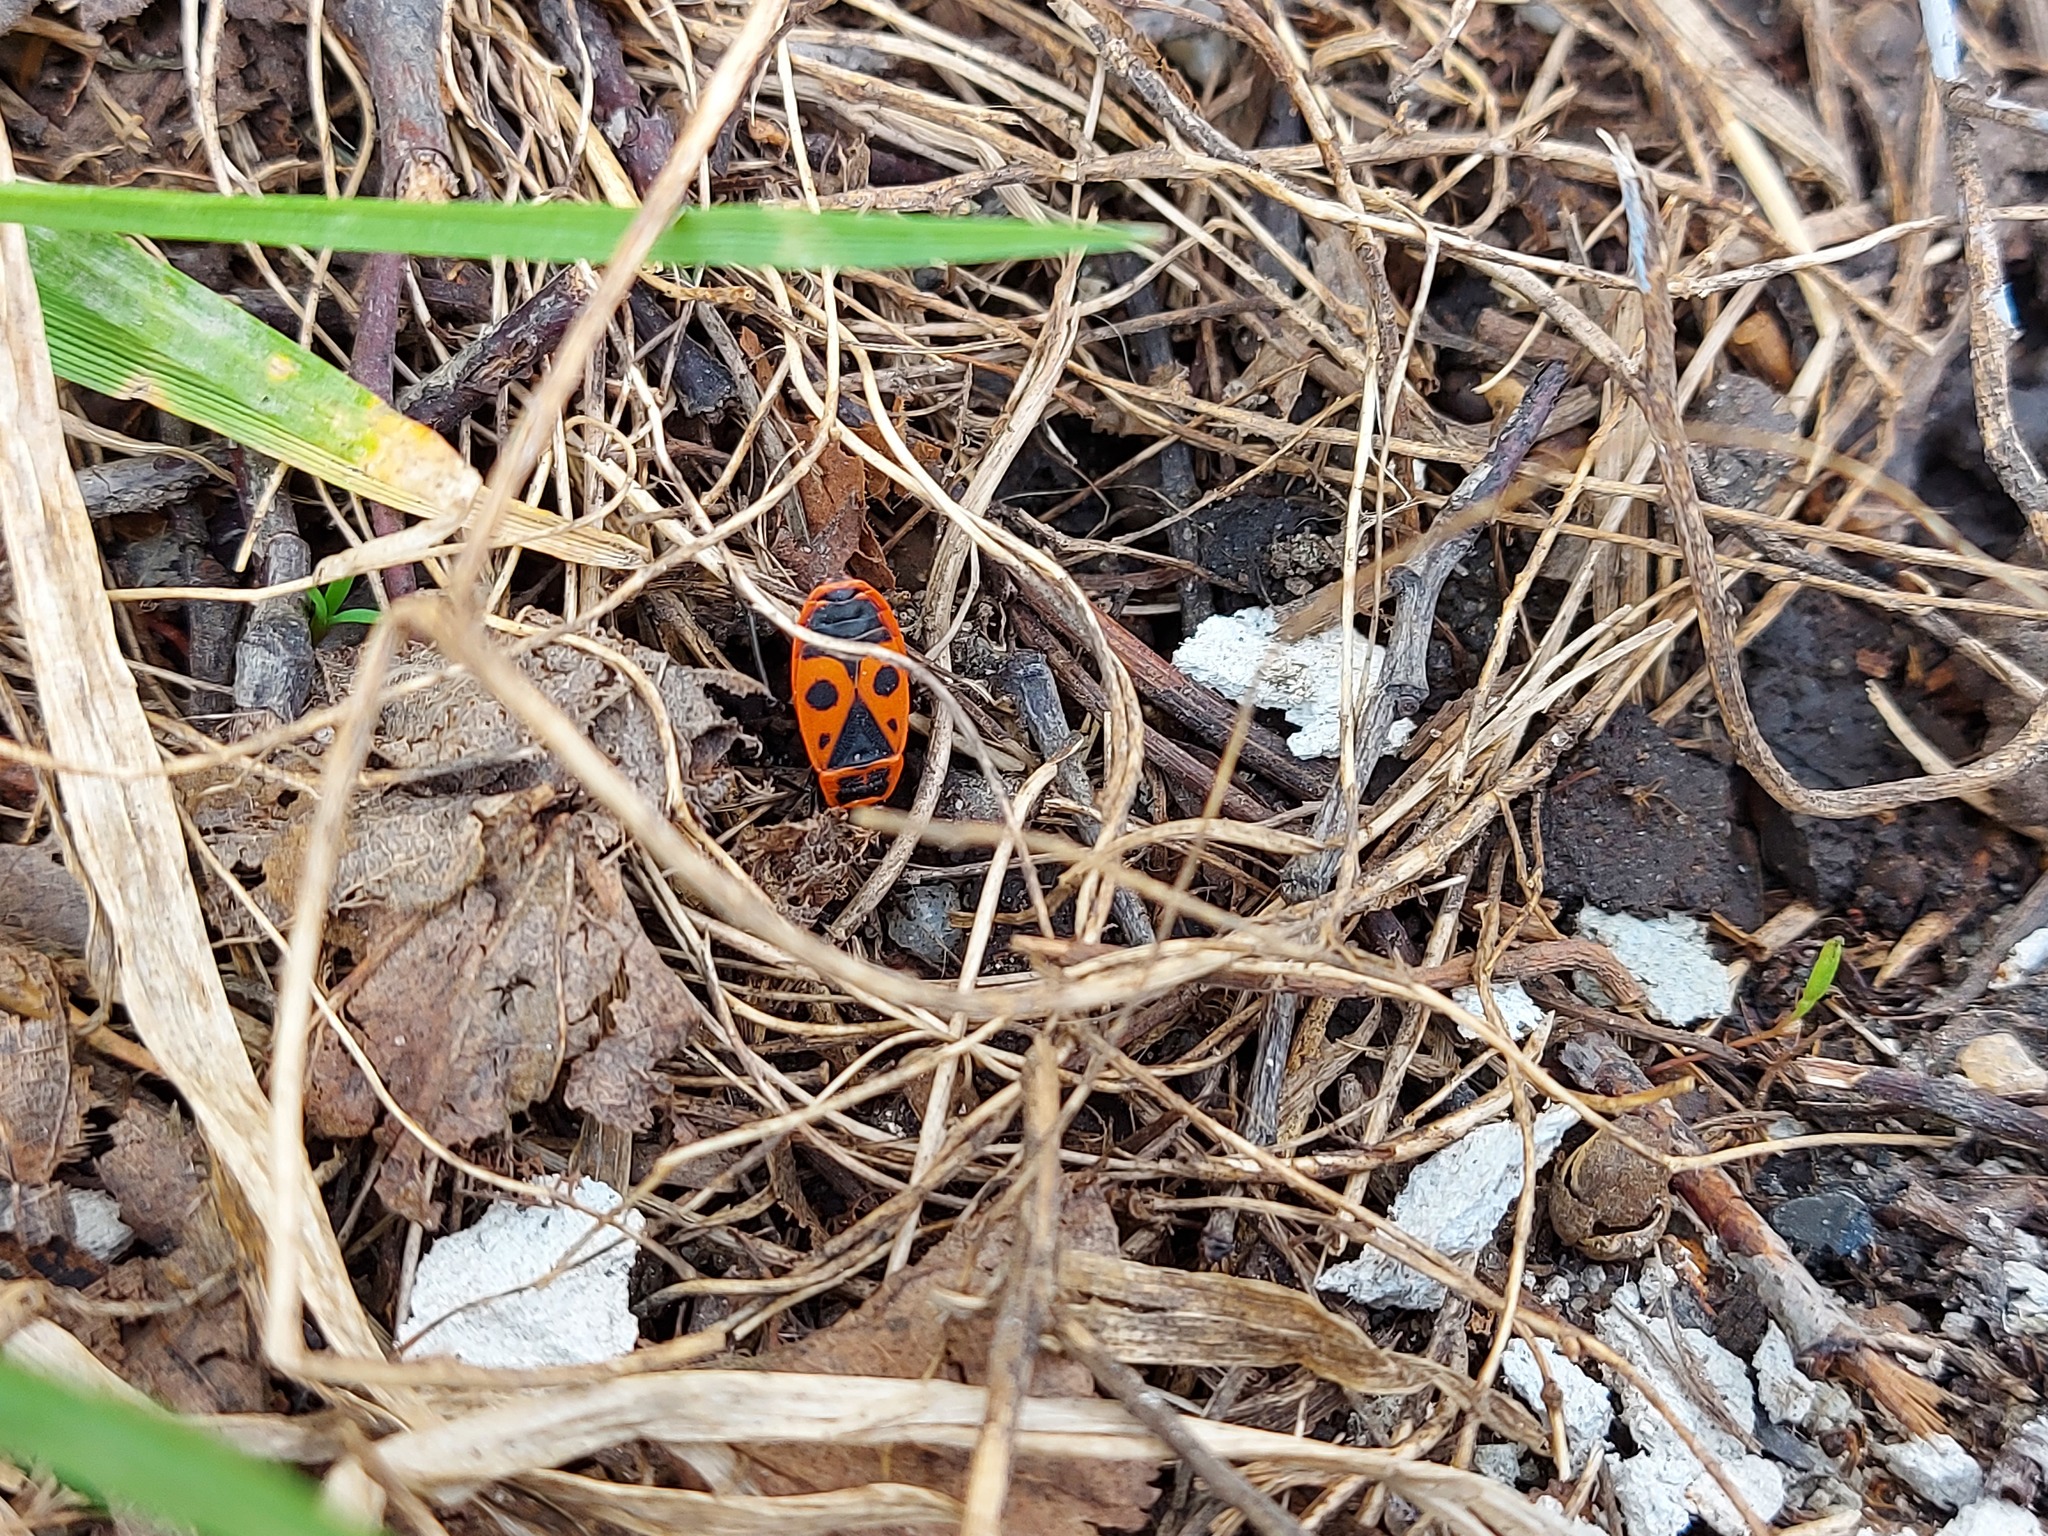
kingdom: Animalia
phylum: Arthropoda
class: Insecta
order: Hemiptera
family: Pyrrhocoridae
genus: Pyrrhocoris
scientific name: Pyrrhocoris apterus
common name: Firebug
